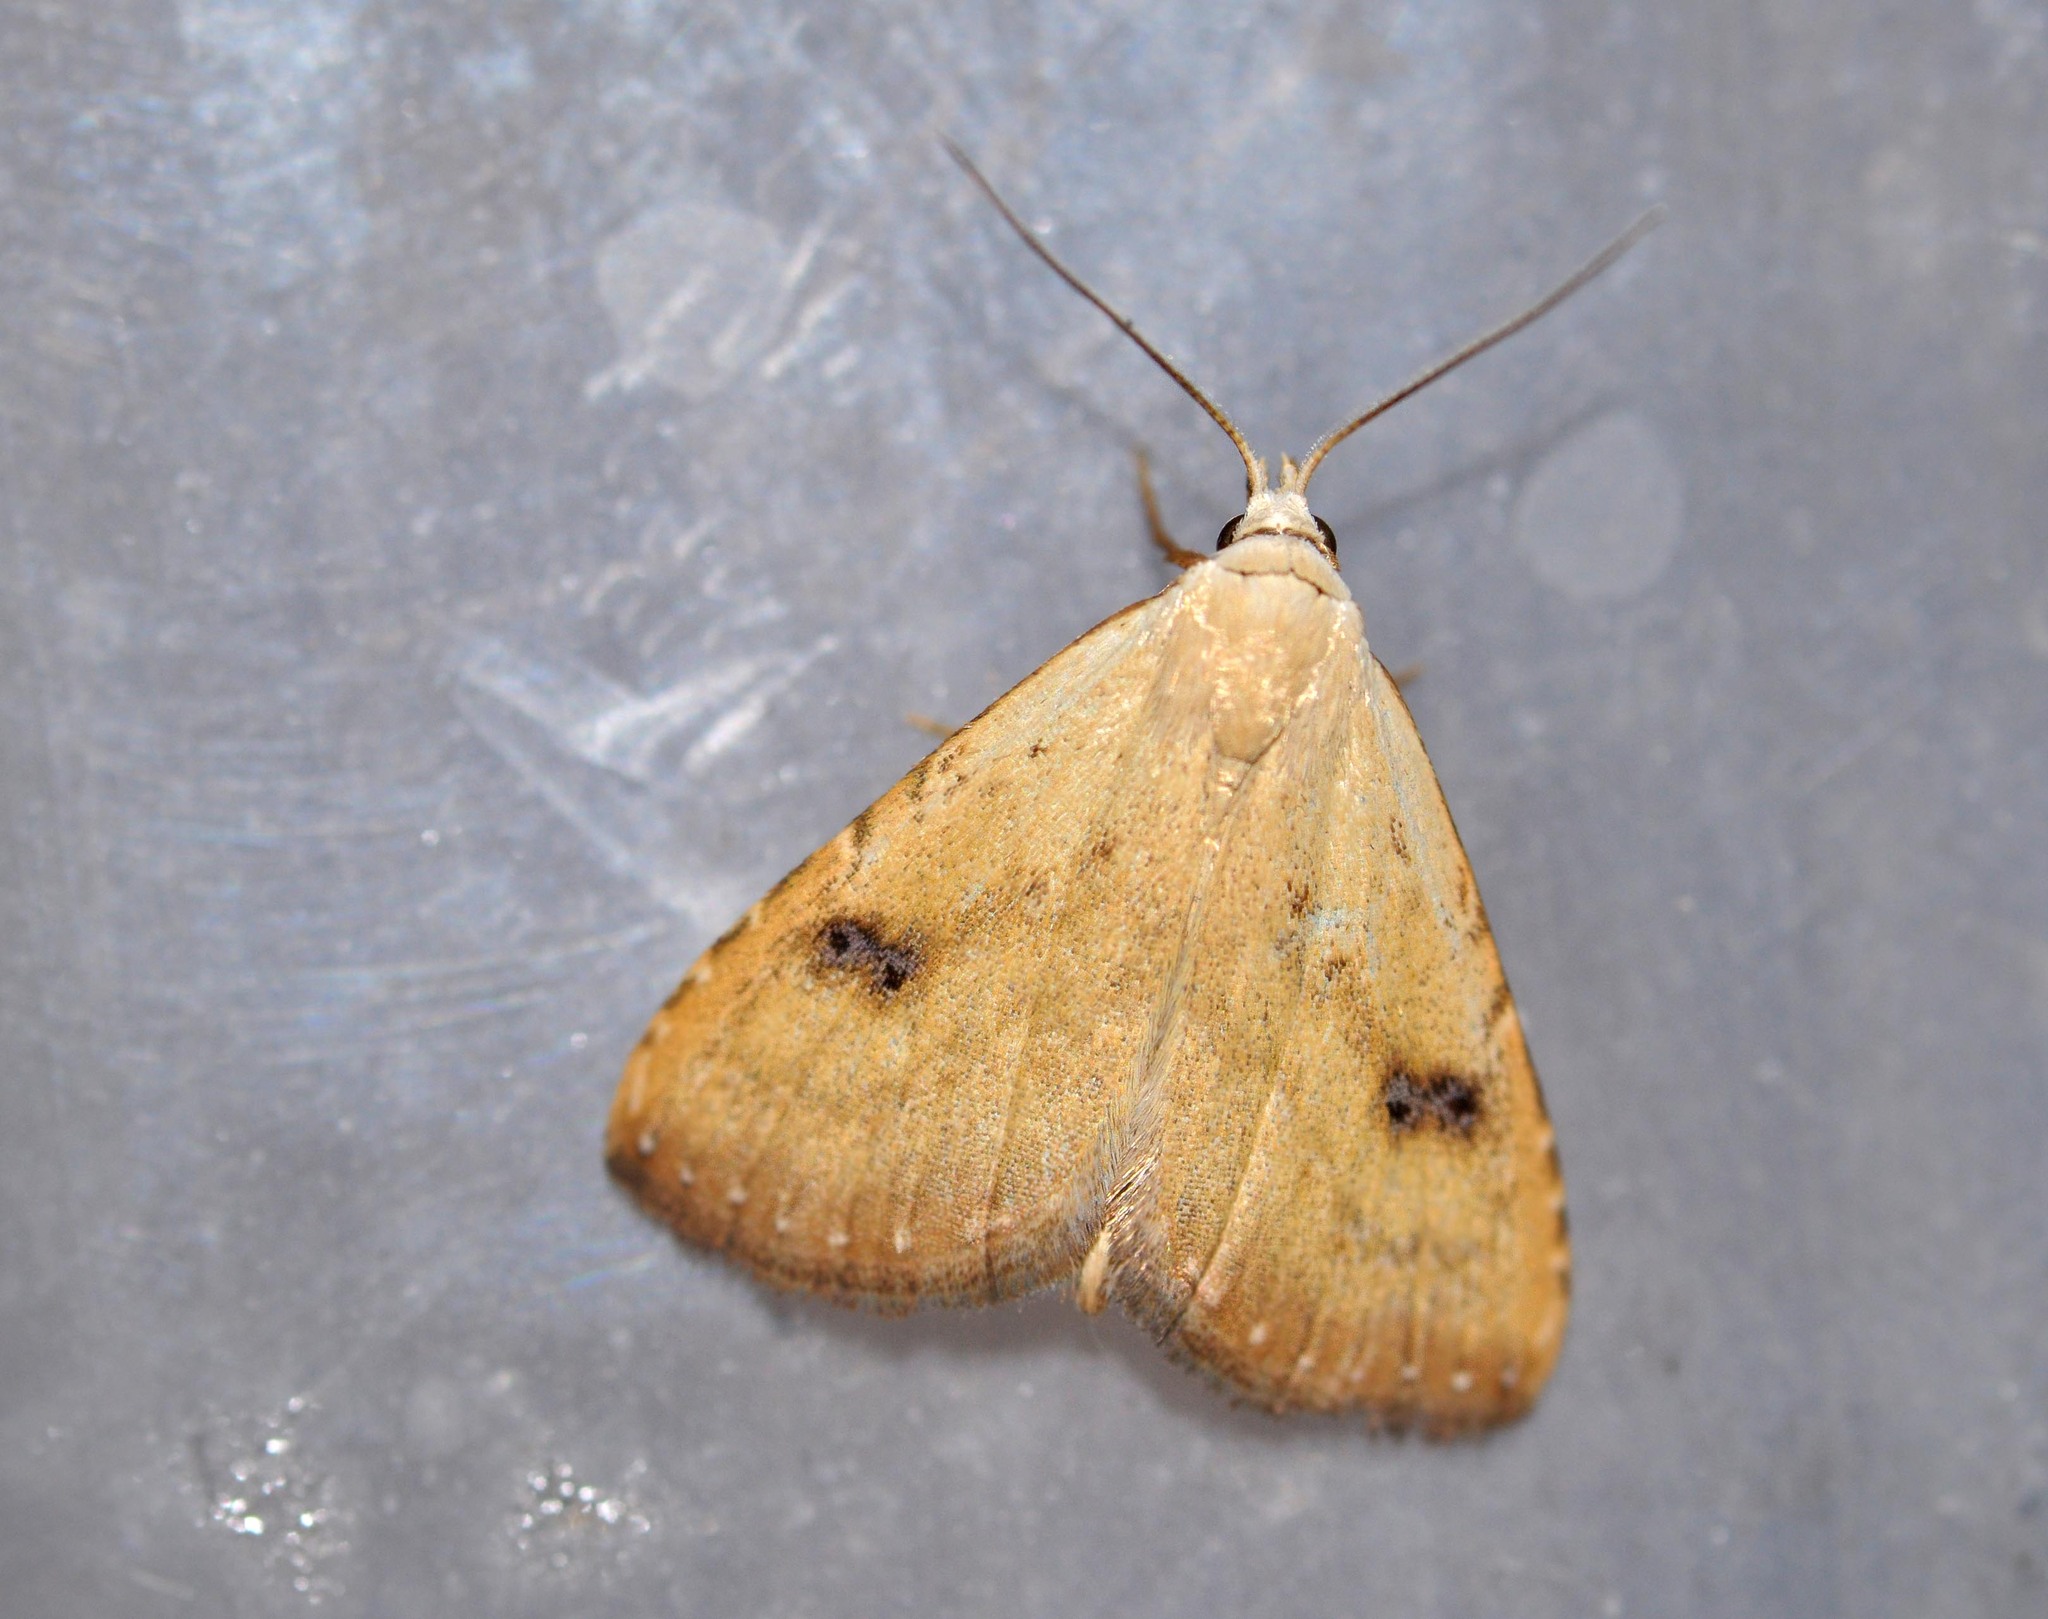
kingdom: Animalia
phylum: Arthropoda
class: Insecta
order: Lepidoptera
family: Erebidae
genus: Rivula
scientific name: Rivula sericealis
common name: Straw dot
